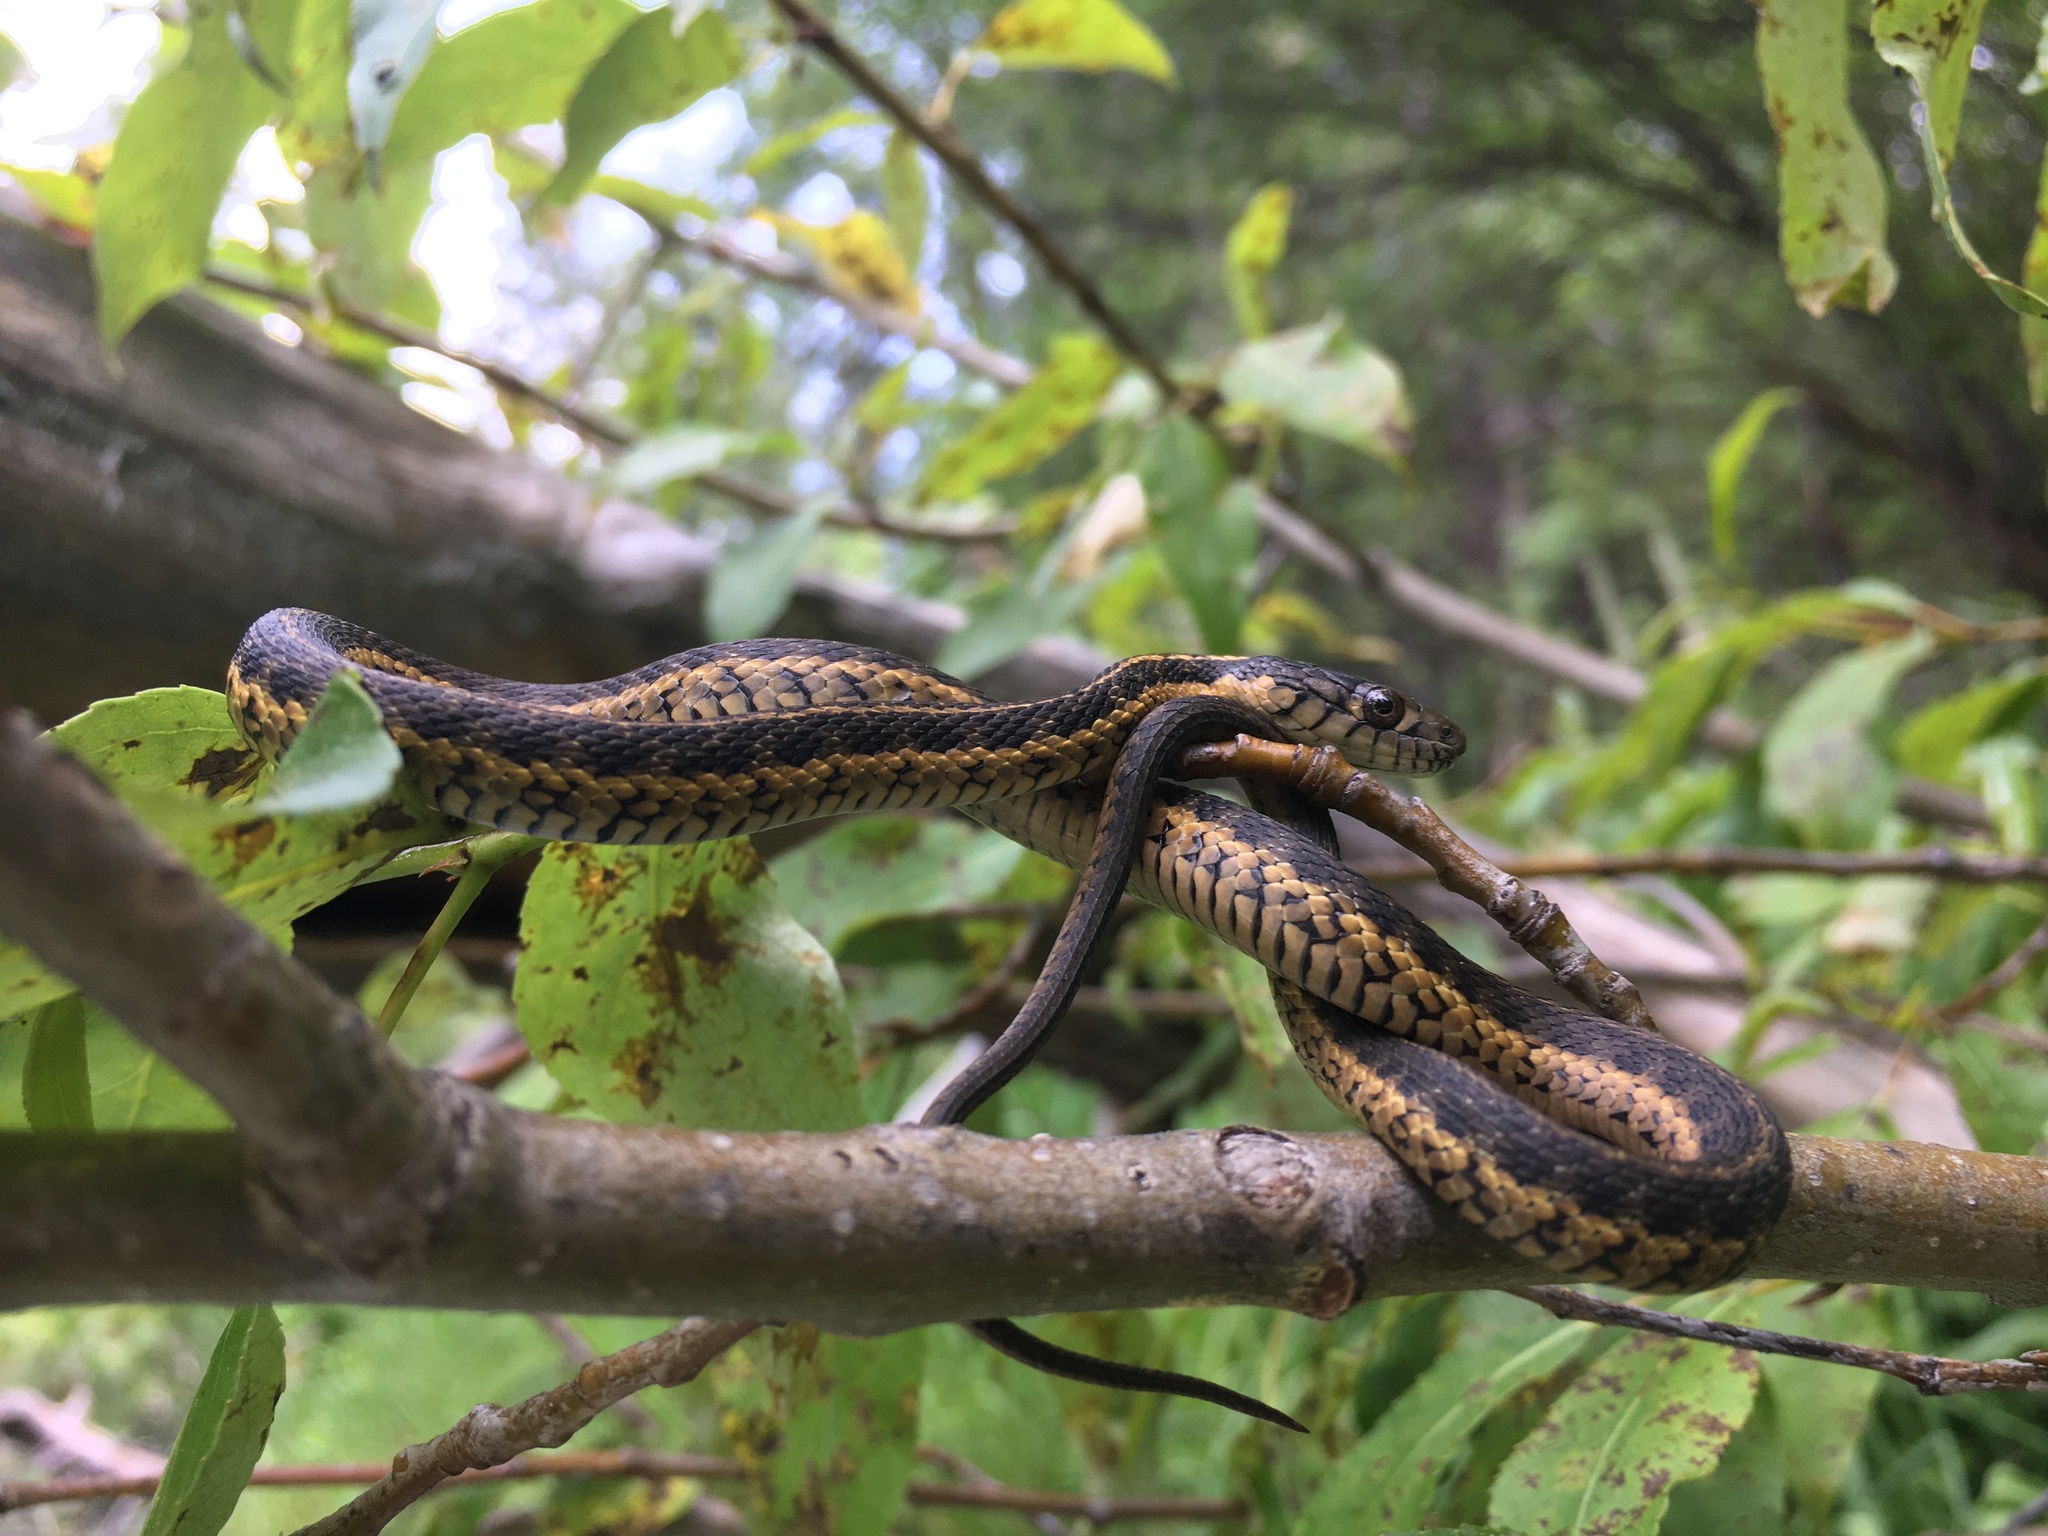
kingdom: Animalia
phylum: Chordata
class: Squamata
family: Colubridae
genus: Thamnophis
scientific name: Thamnophis atratus
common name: Pacific coast aquatic garter snake
